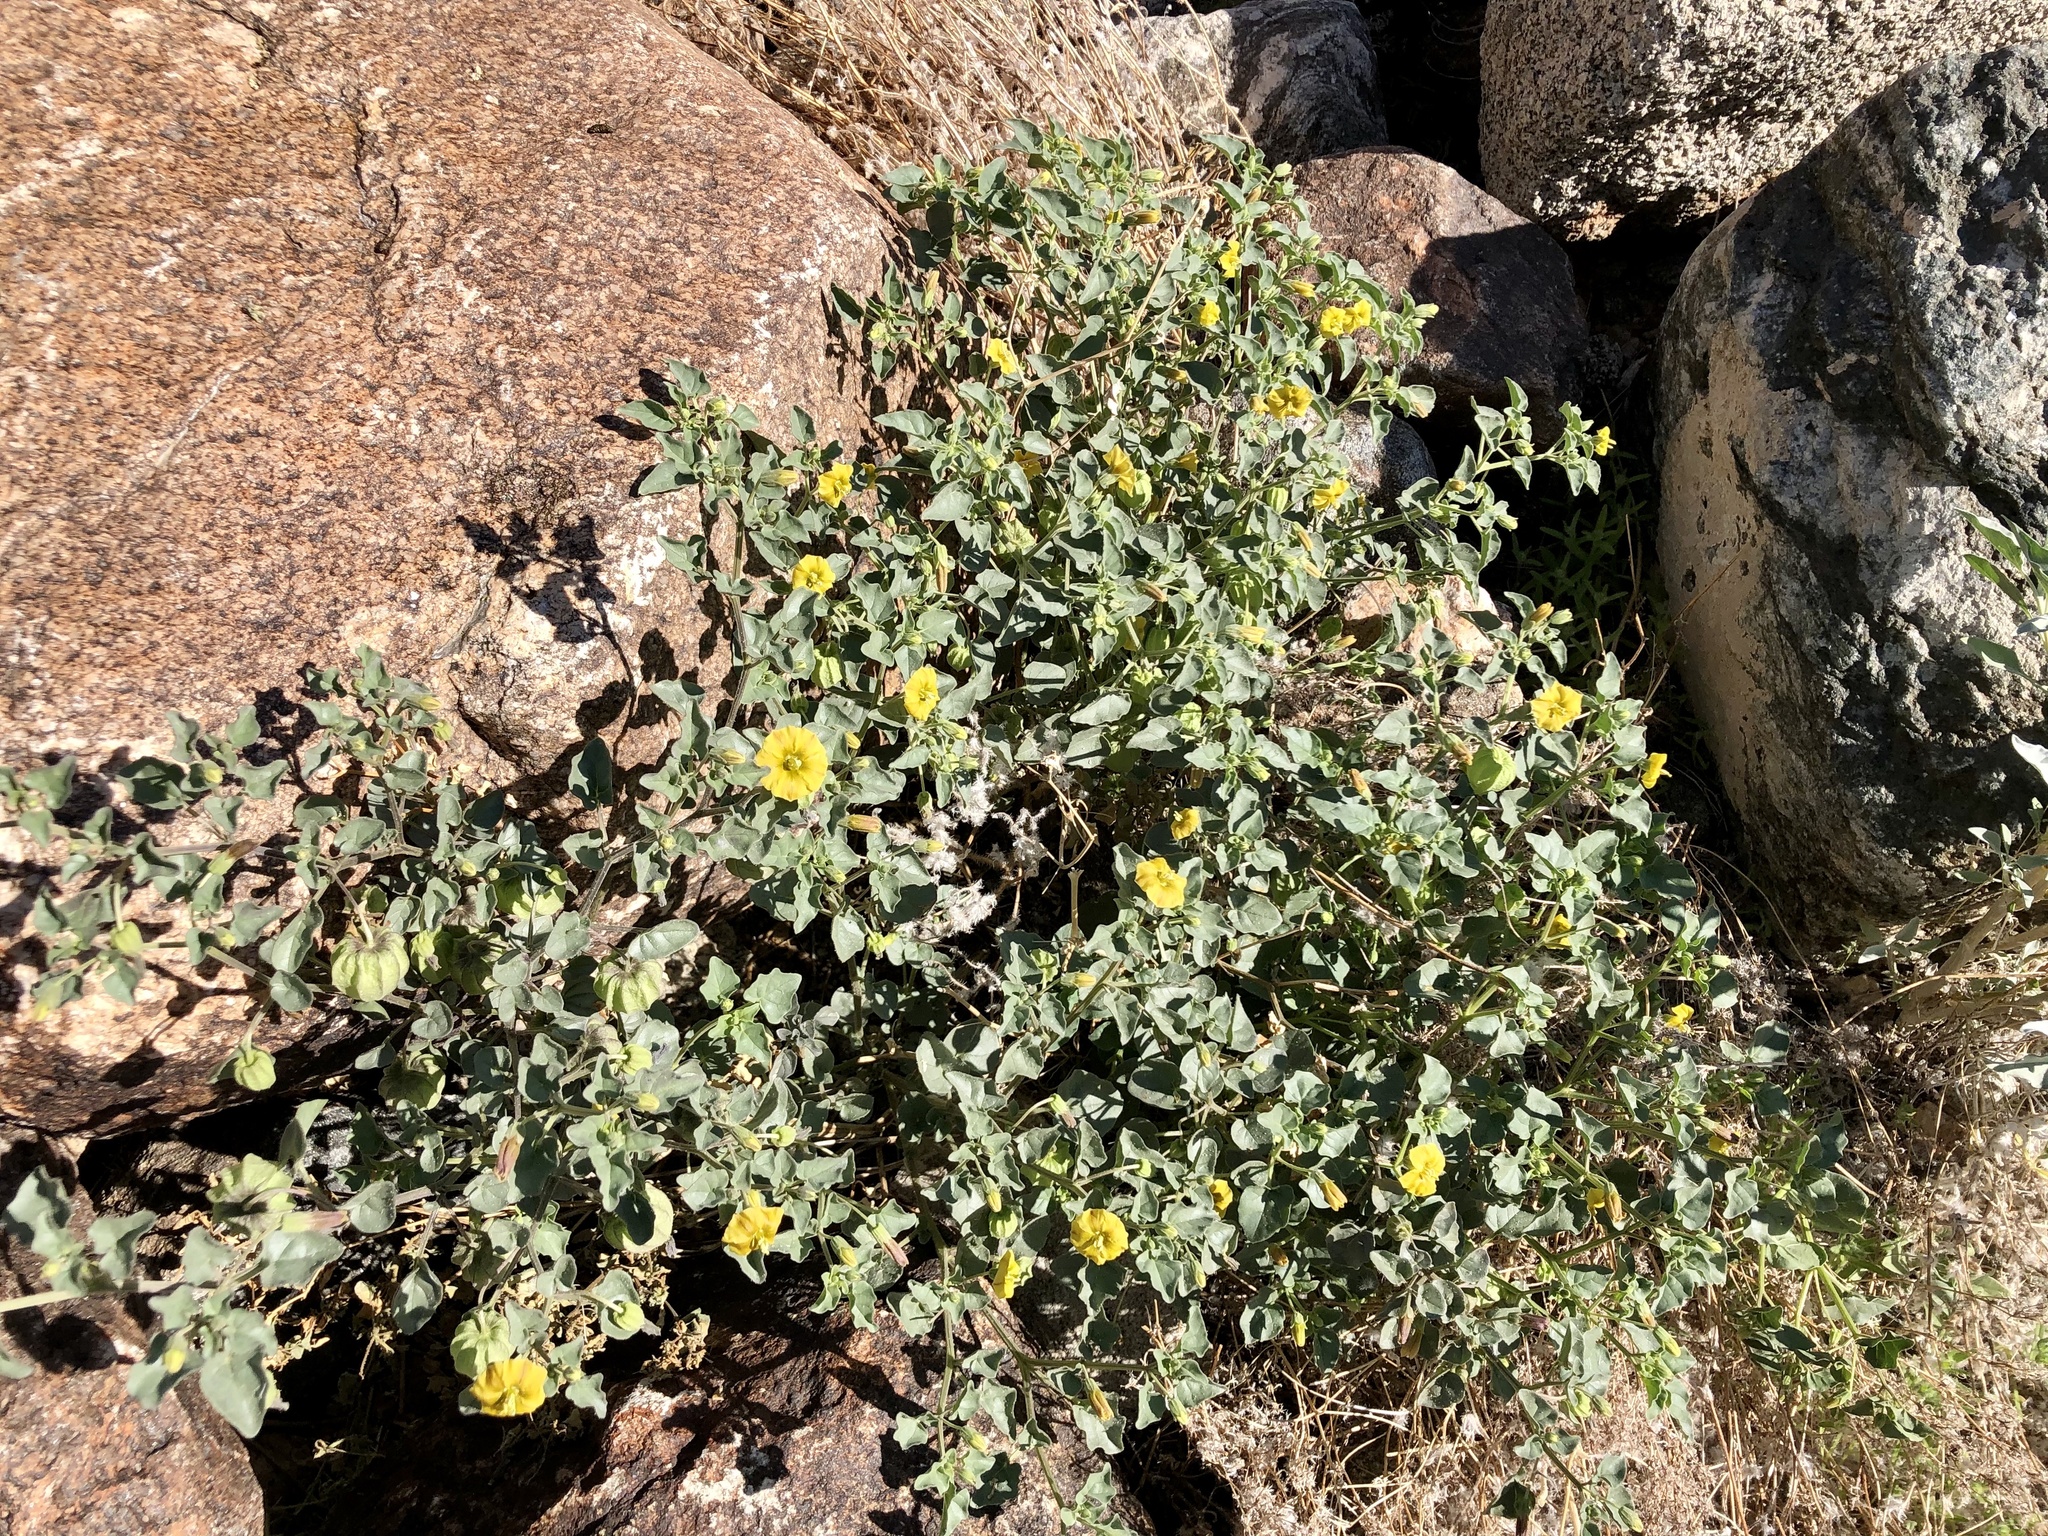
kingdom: Plantae
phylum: Tracheophyta
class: Magnoliopsida
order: Solanales
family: Solanaceae
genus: Physalis
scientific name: Physalis crassifolia
